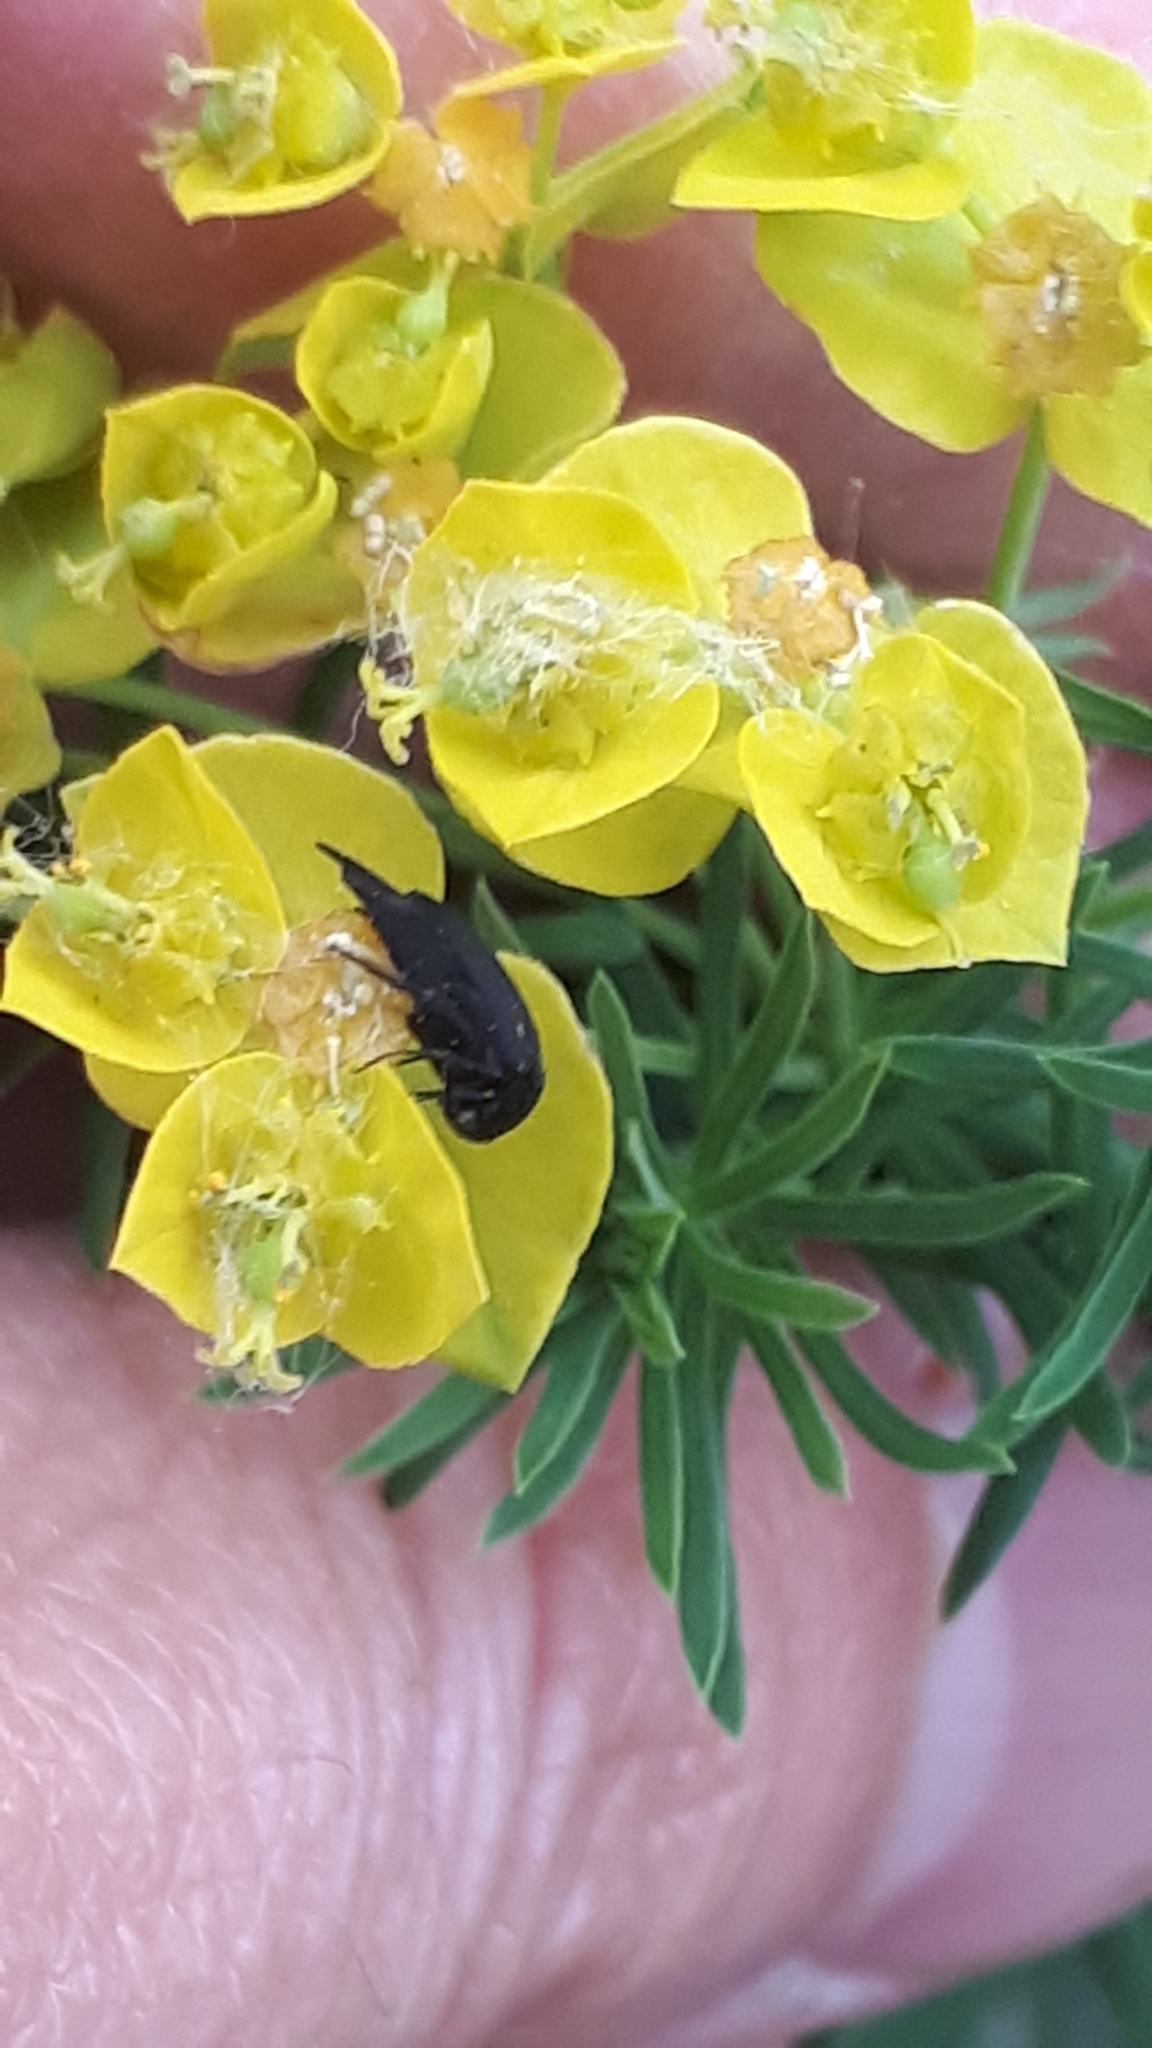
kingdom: Animalia
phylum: Arthropoda
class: Insecta
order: Coleoptera
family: Mordellidae
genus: Mordellistena
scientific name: Mordellistena brevicauda
